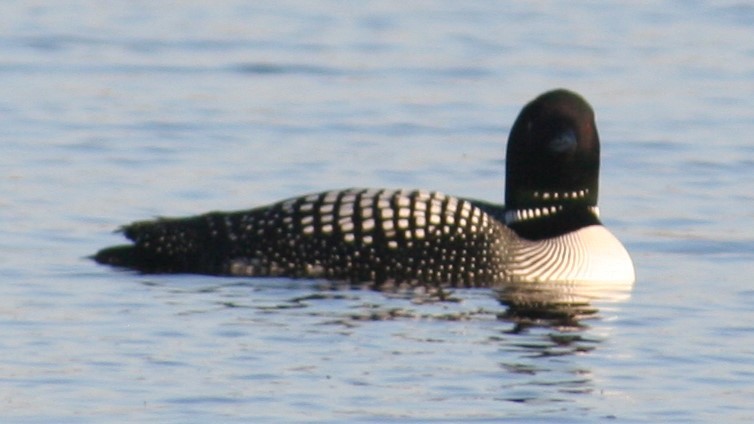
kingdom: Animalia
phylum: Chordata
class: Aves
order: Gaviiformes
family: Gaviidae
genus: Gavia
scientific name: Gavia immer
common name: Common loon
